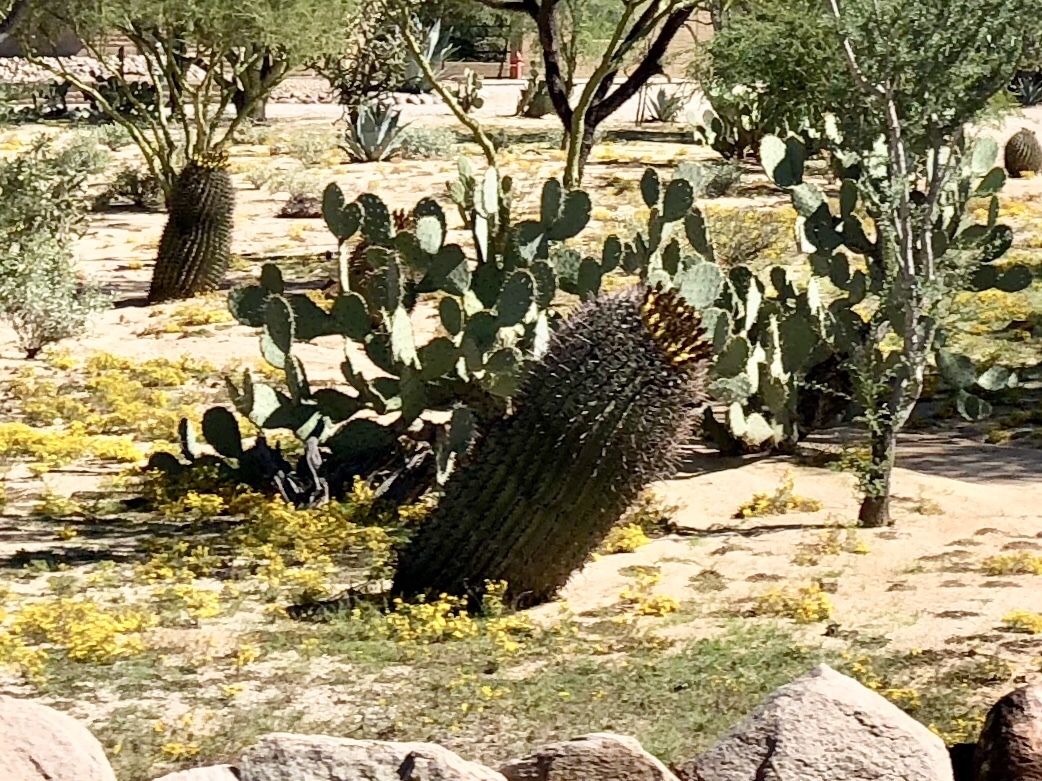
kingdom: Plantae
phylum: Tracheophyta
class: Magnoliopsida
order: Caryophyllales
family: Cactaceae
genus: Ferocactus
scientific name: Ferocactus wislizeni
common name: Candy barrel cactus
